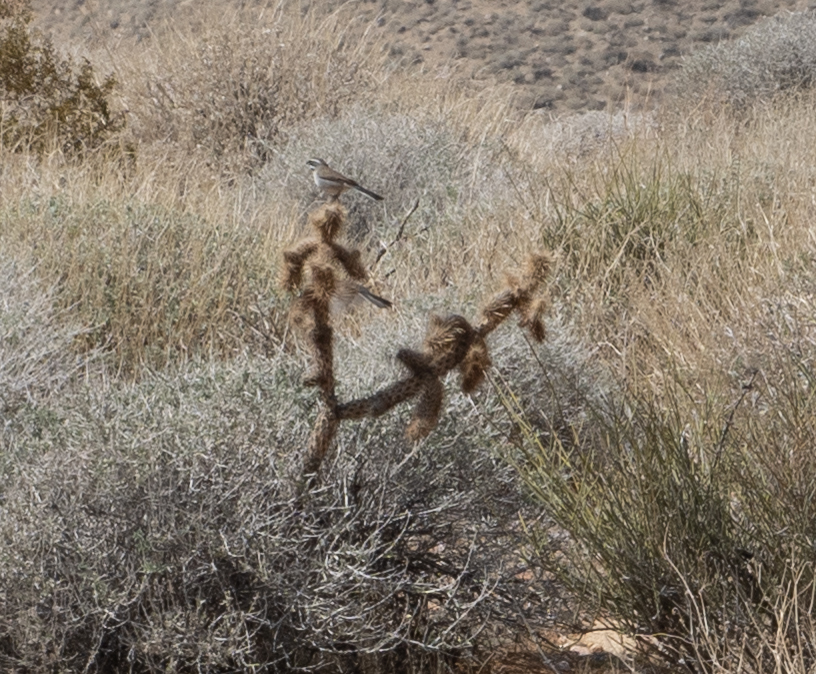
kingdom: Animalia
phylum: Chordata
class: Aves
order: Passeriformes
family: Passerellidae
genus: Amphispiza
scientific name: Amphispiza bilineata
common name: Black-throated sparrow
